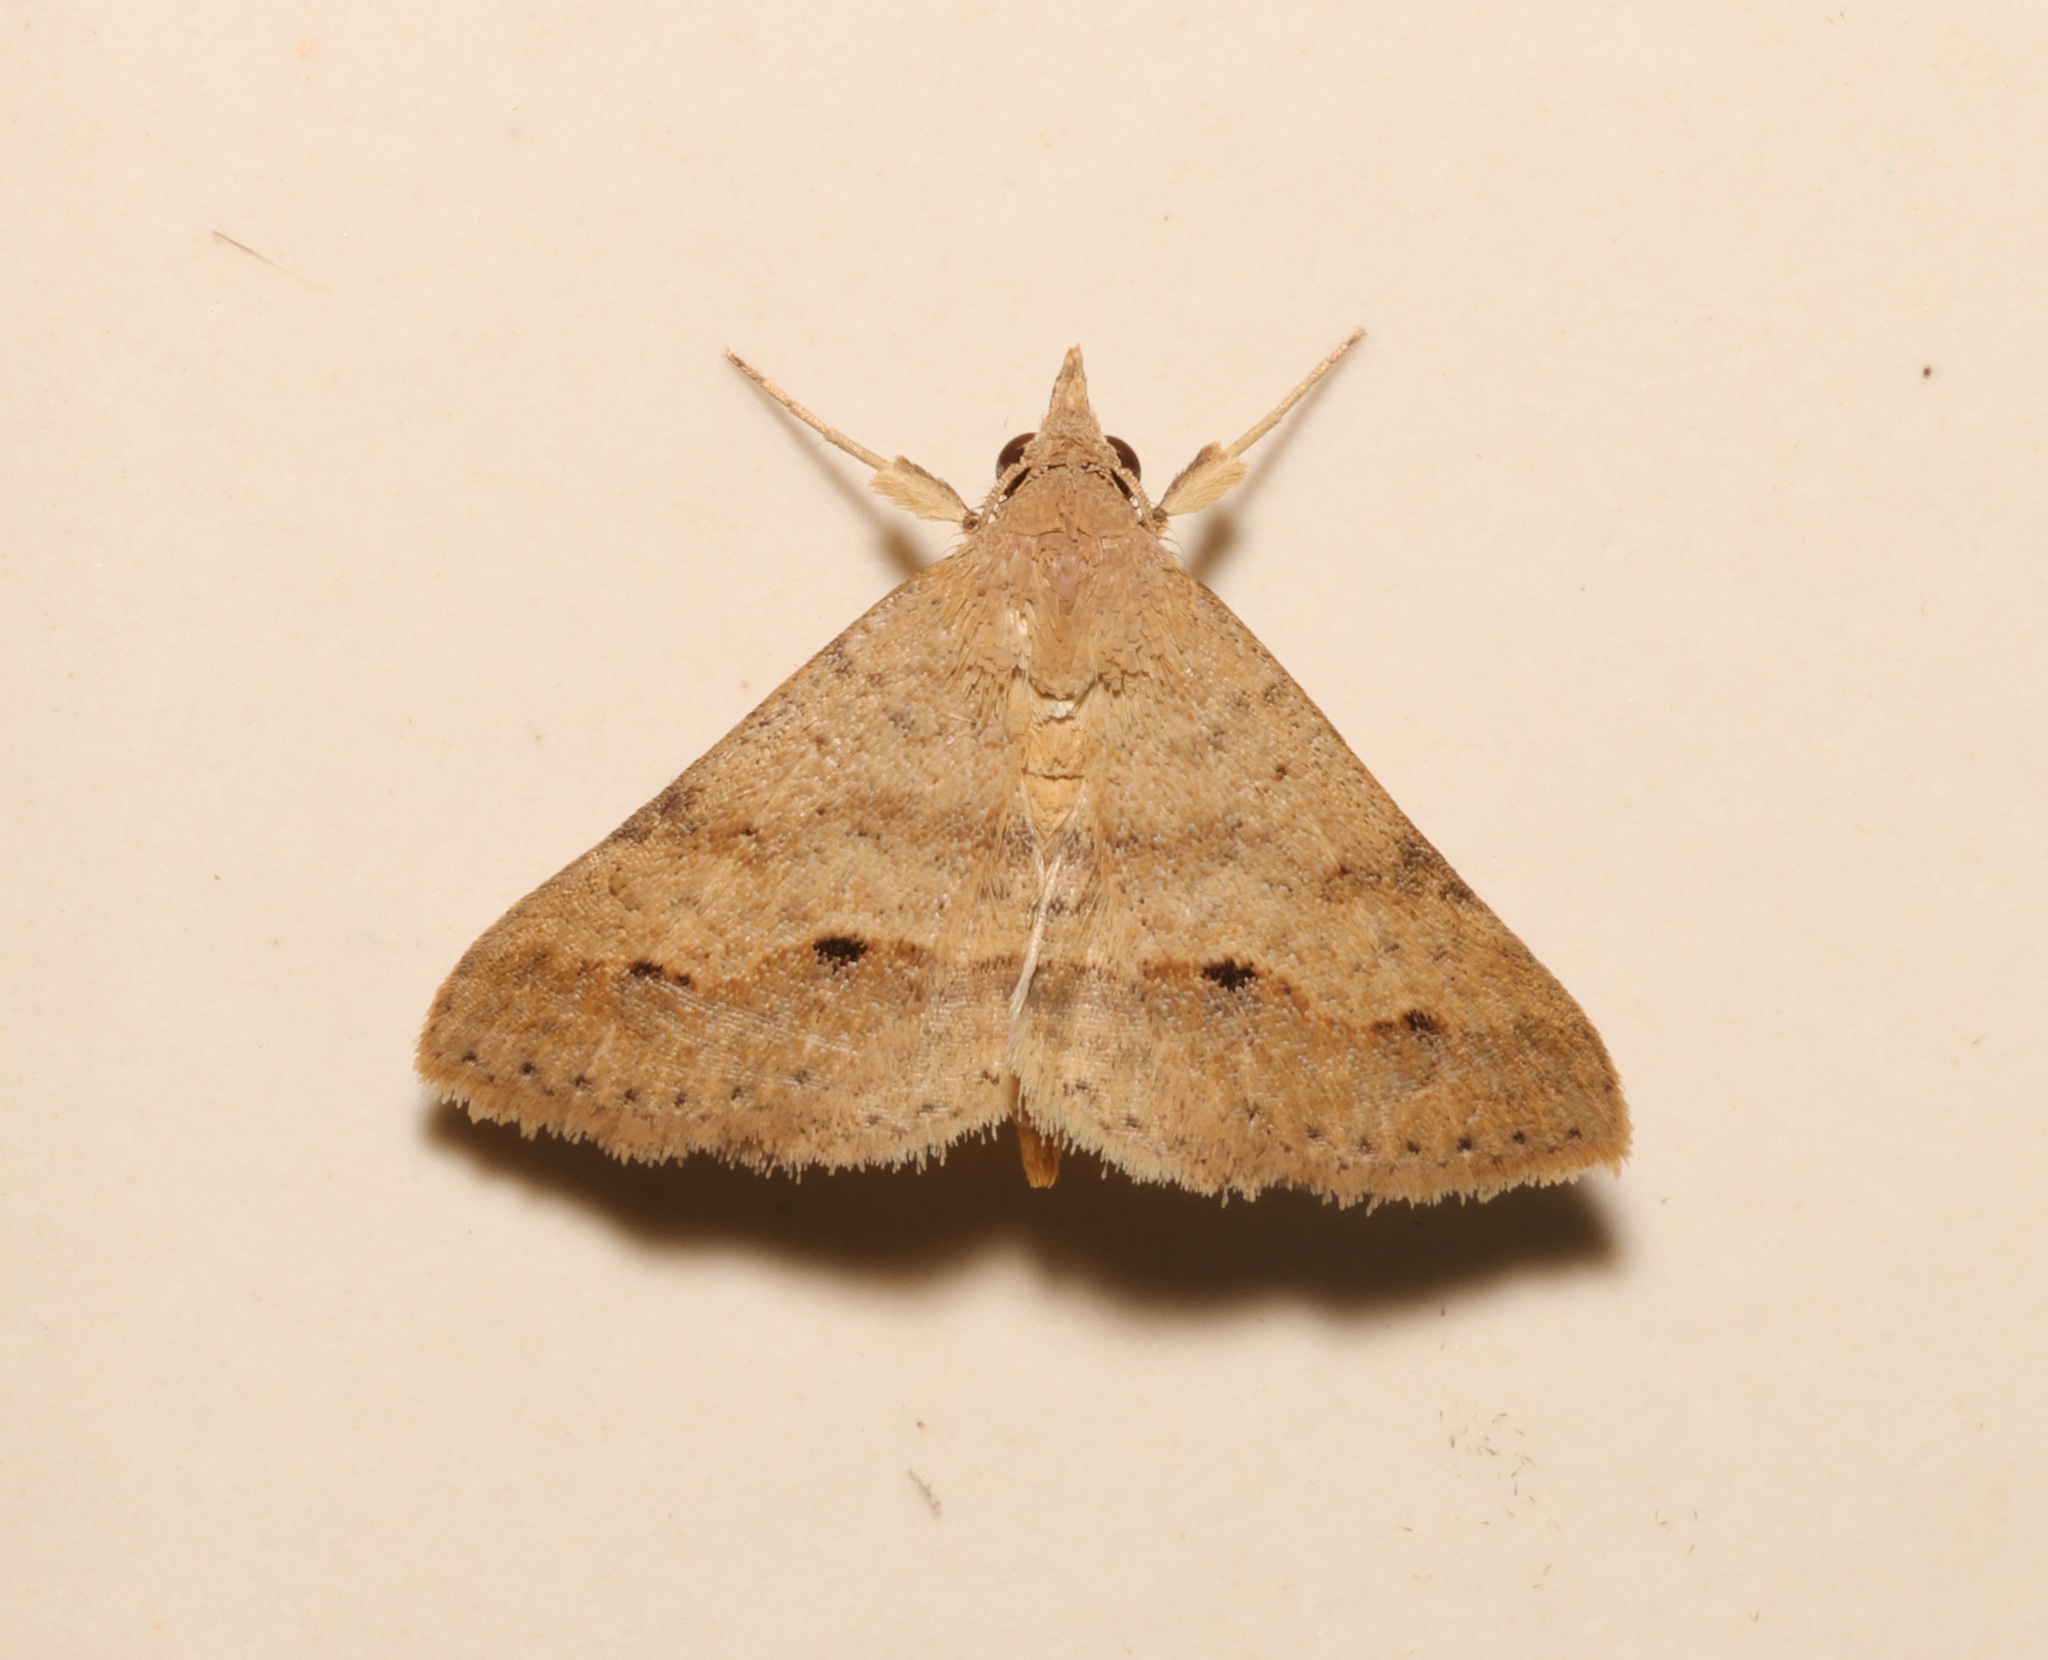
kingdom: Animalia
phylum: Arthropoda
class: Insecta
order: Lepidoptera
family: Erebidae
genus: Gesonia
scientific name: Gesonia obeditalis
